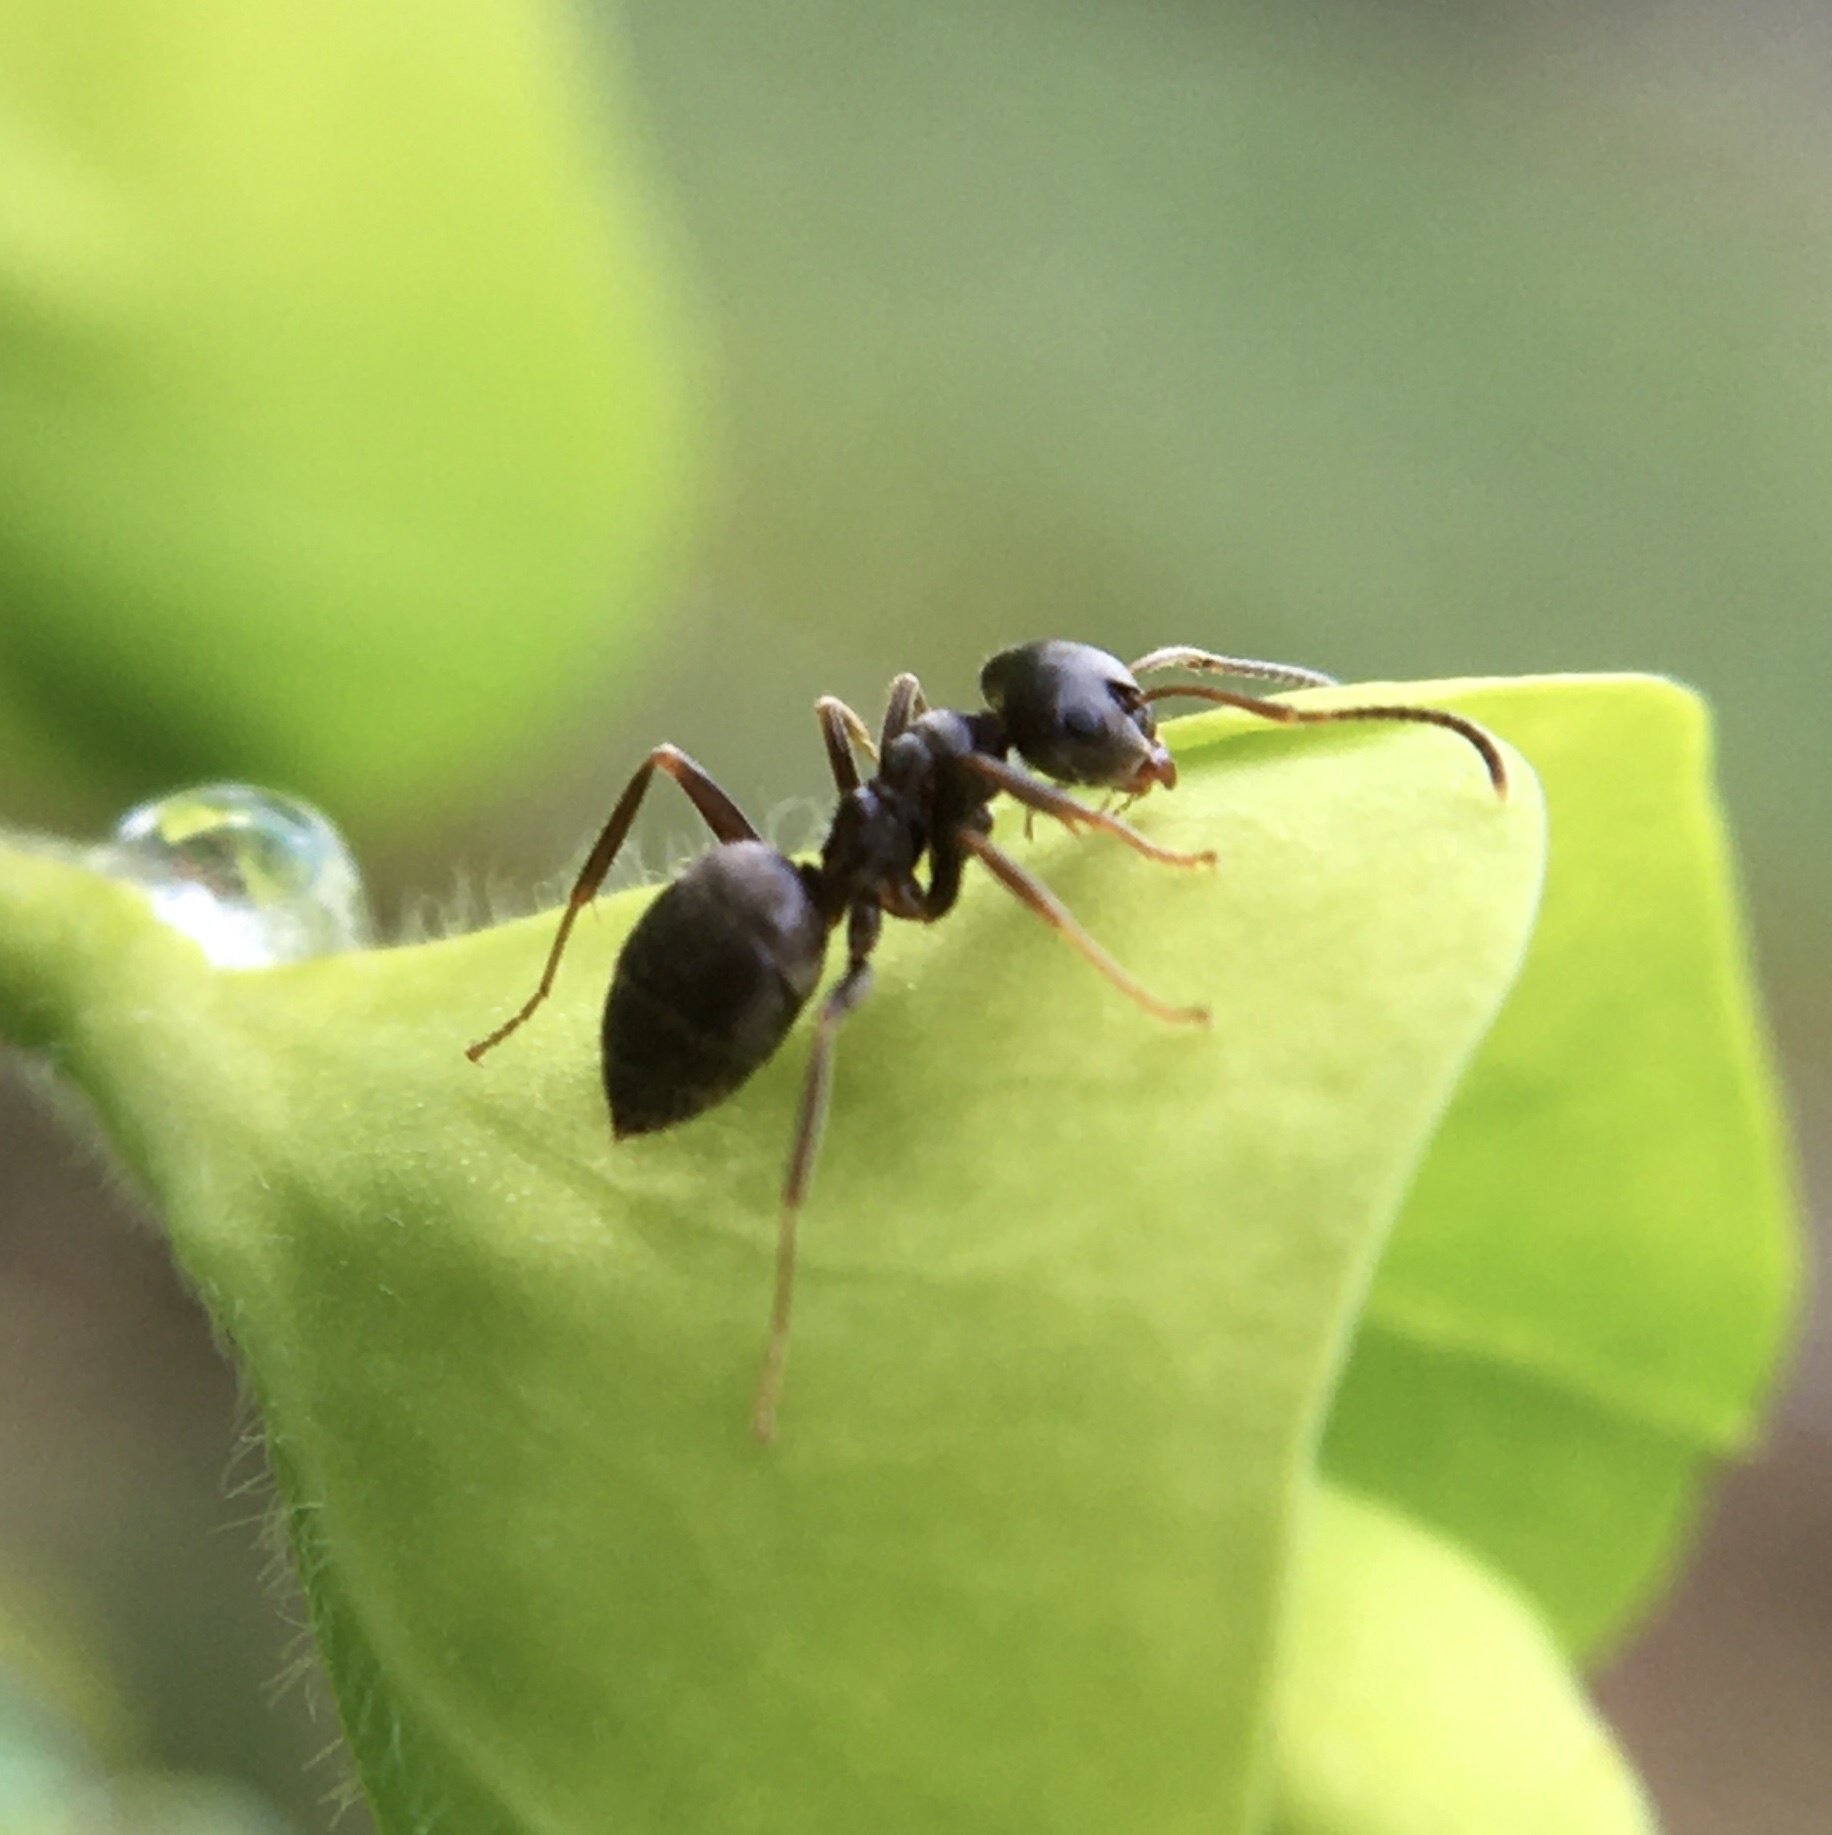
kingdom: Animalia
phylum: Arthropoda
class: Insecta
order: Hymenoptera
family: Formicidae
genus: Lasius
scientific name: Lasius niger
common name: Small black ant
